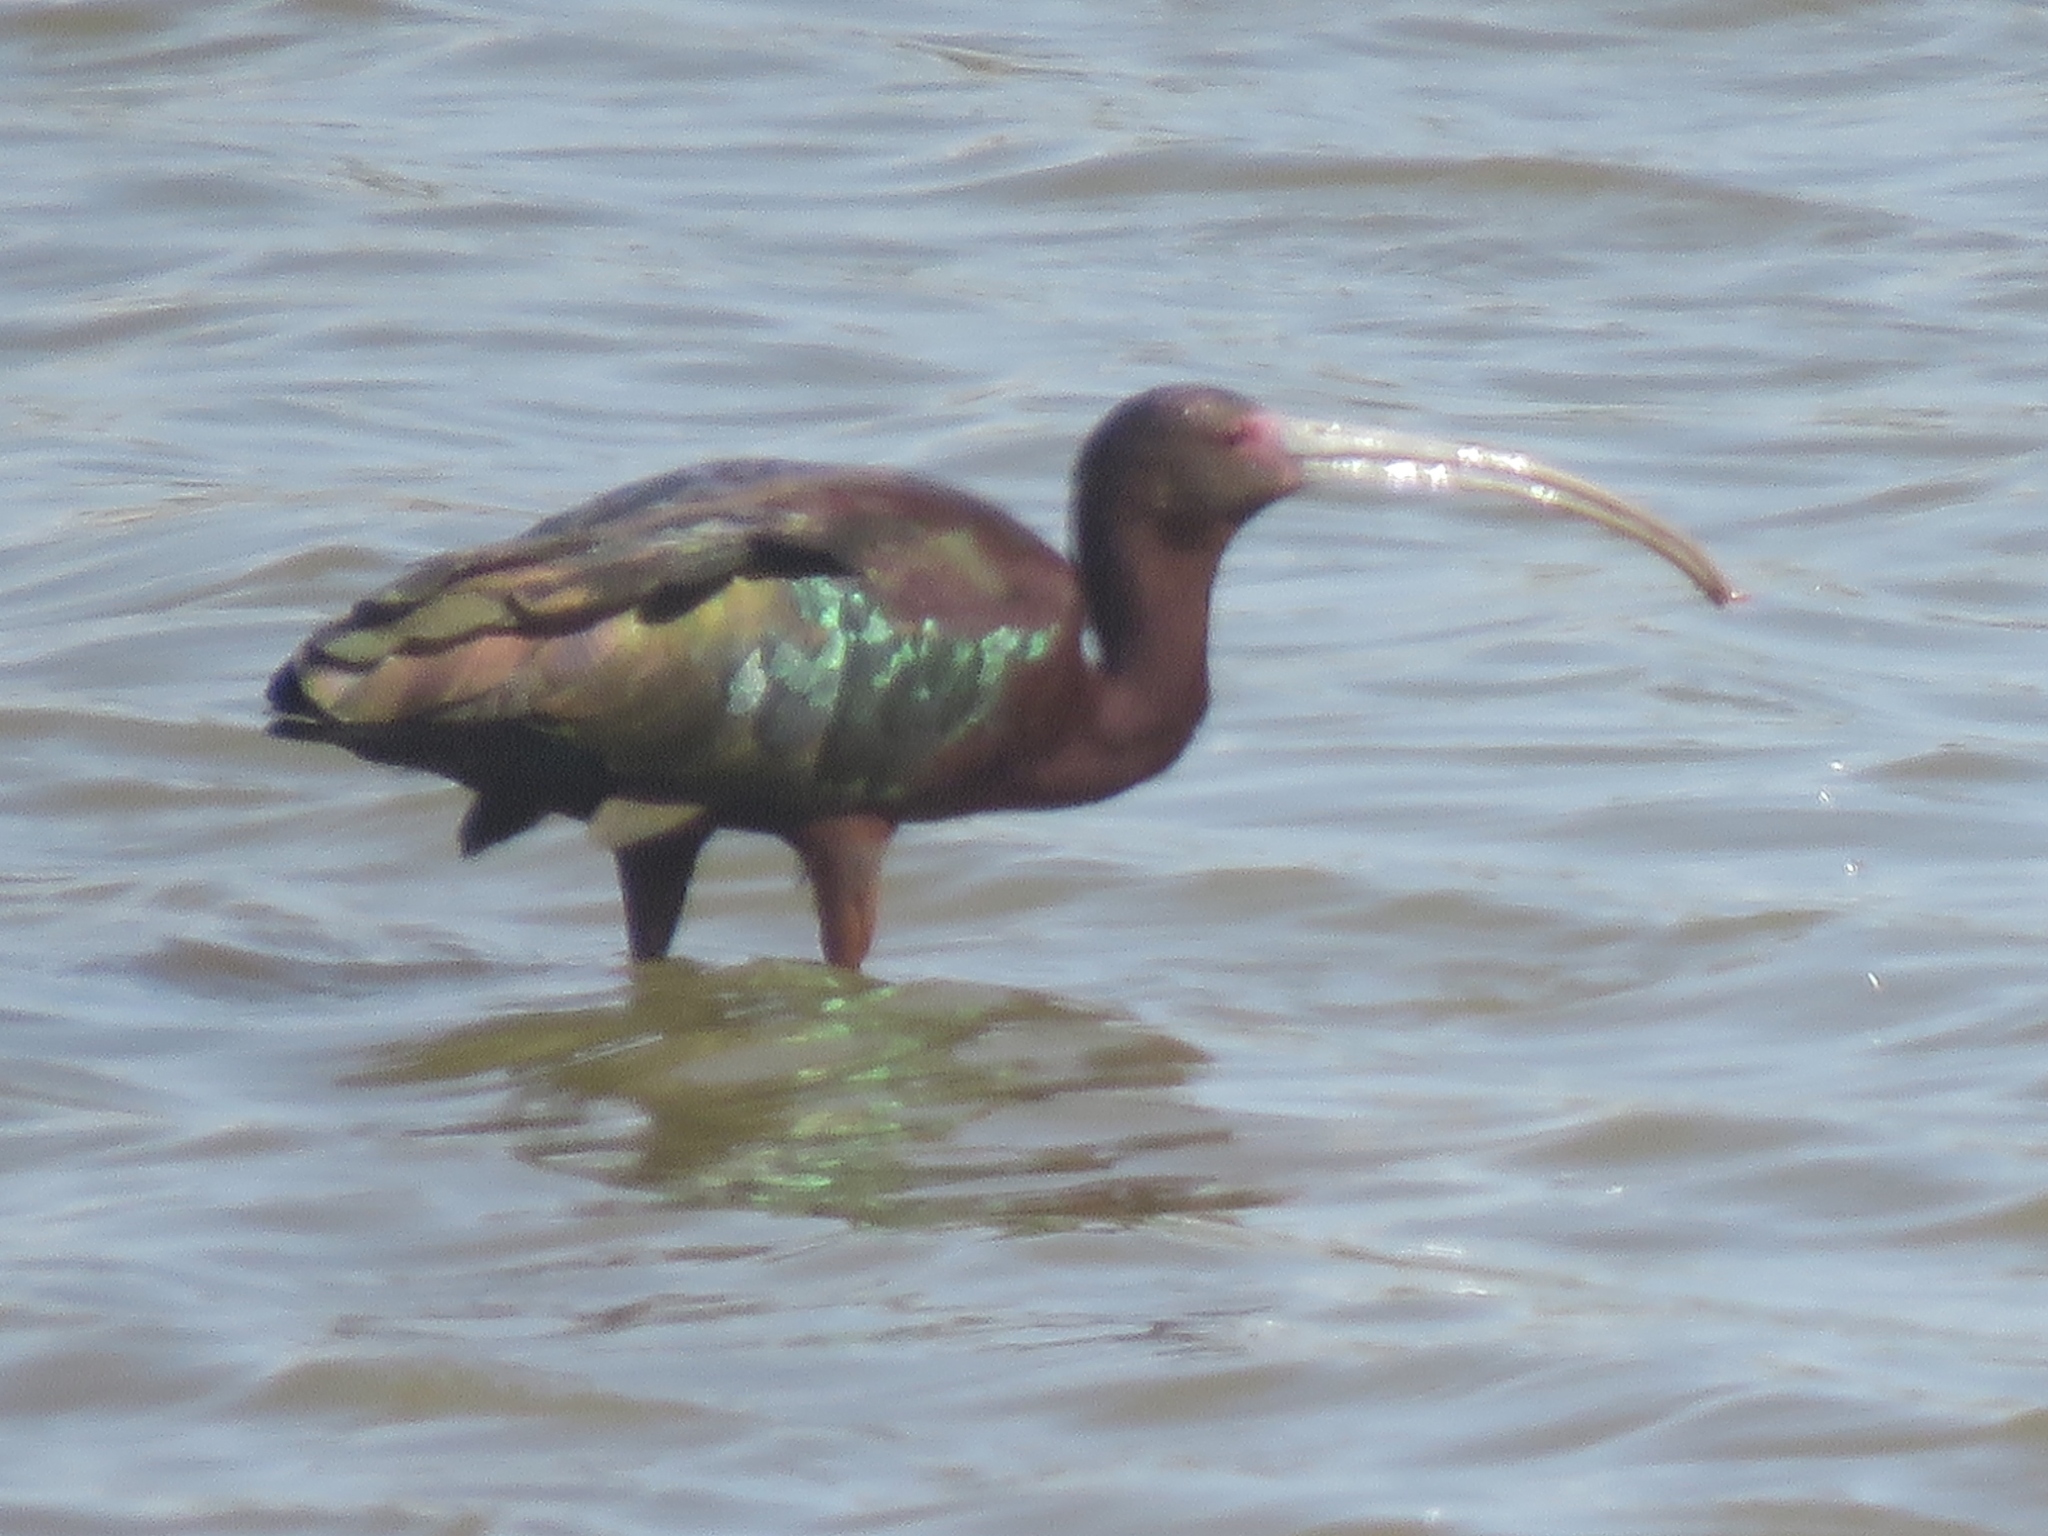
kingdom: Animalia
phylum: Chordata
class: Aves
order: Pelecaniformes
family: Threskiornithidae
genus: Plegadis
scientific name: Plegadis chihi
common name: White-faced ibis
